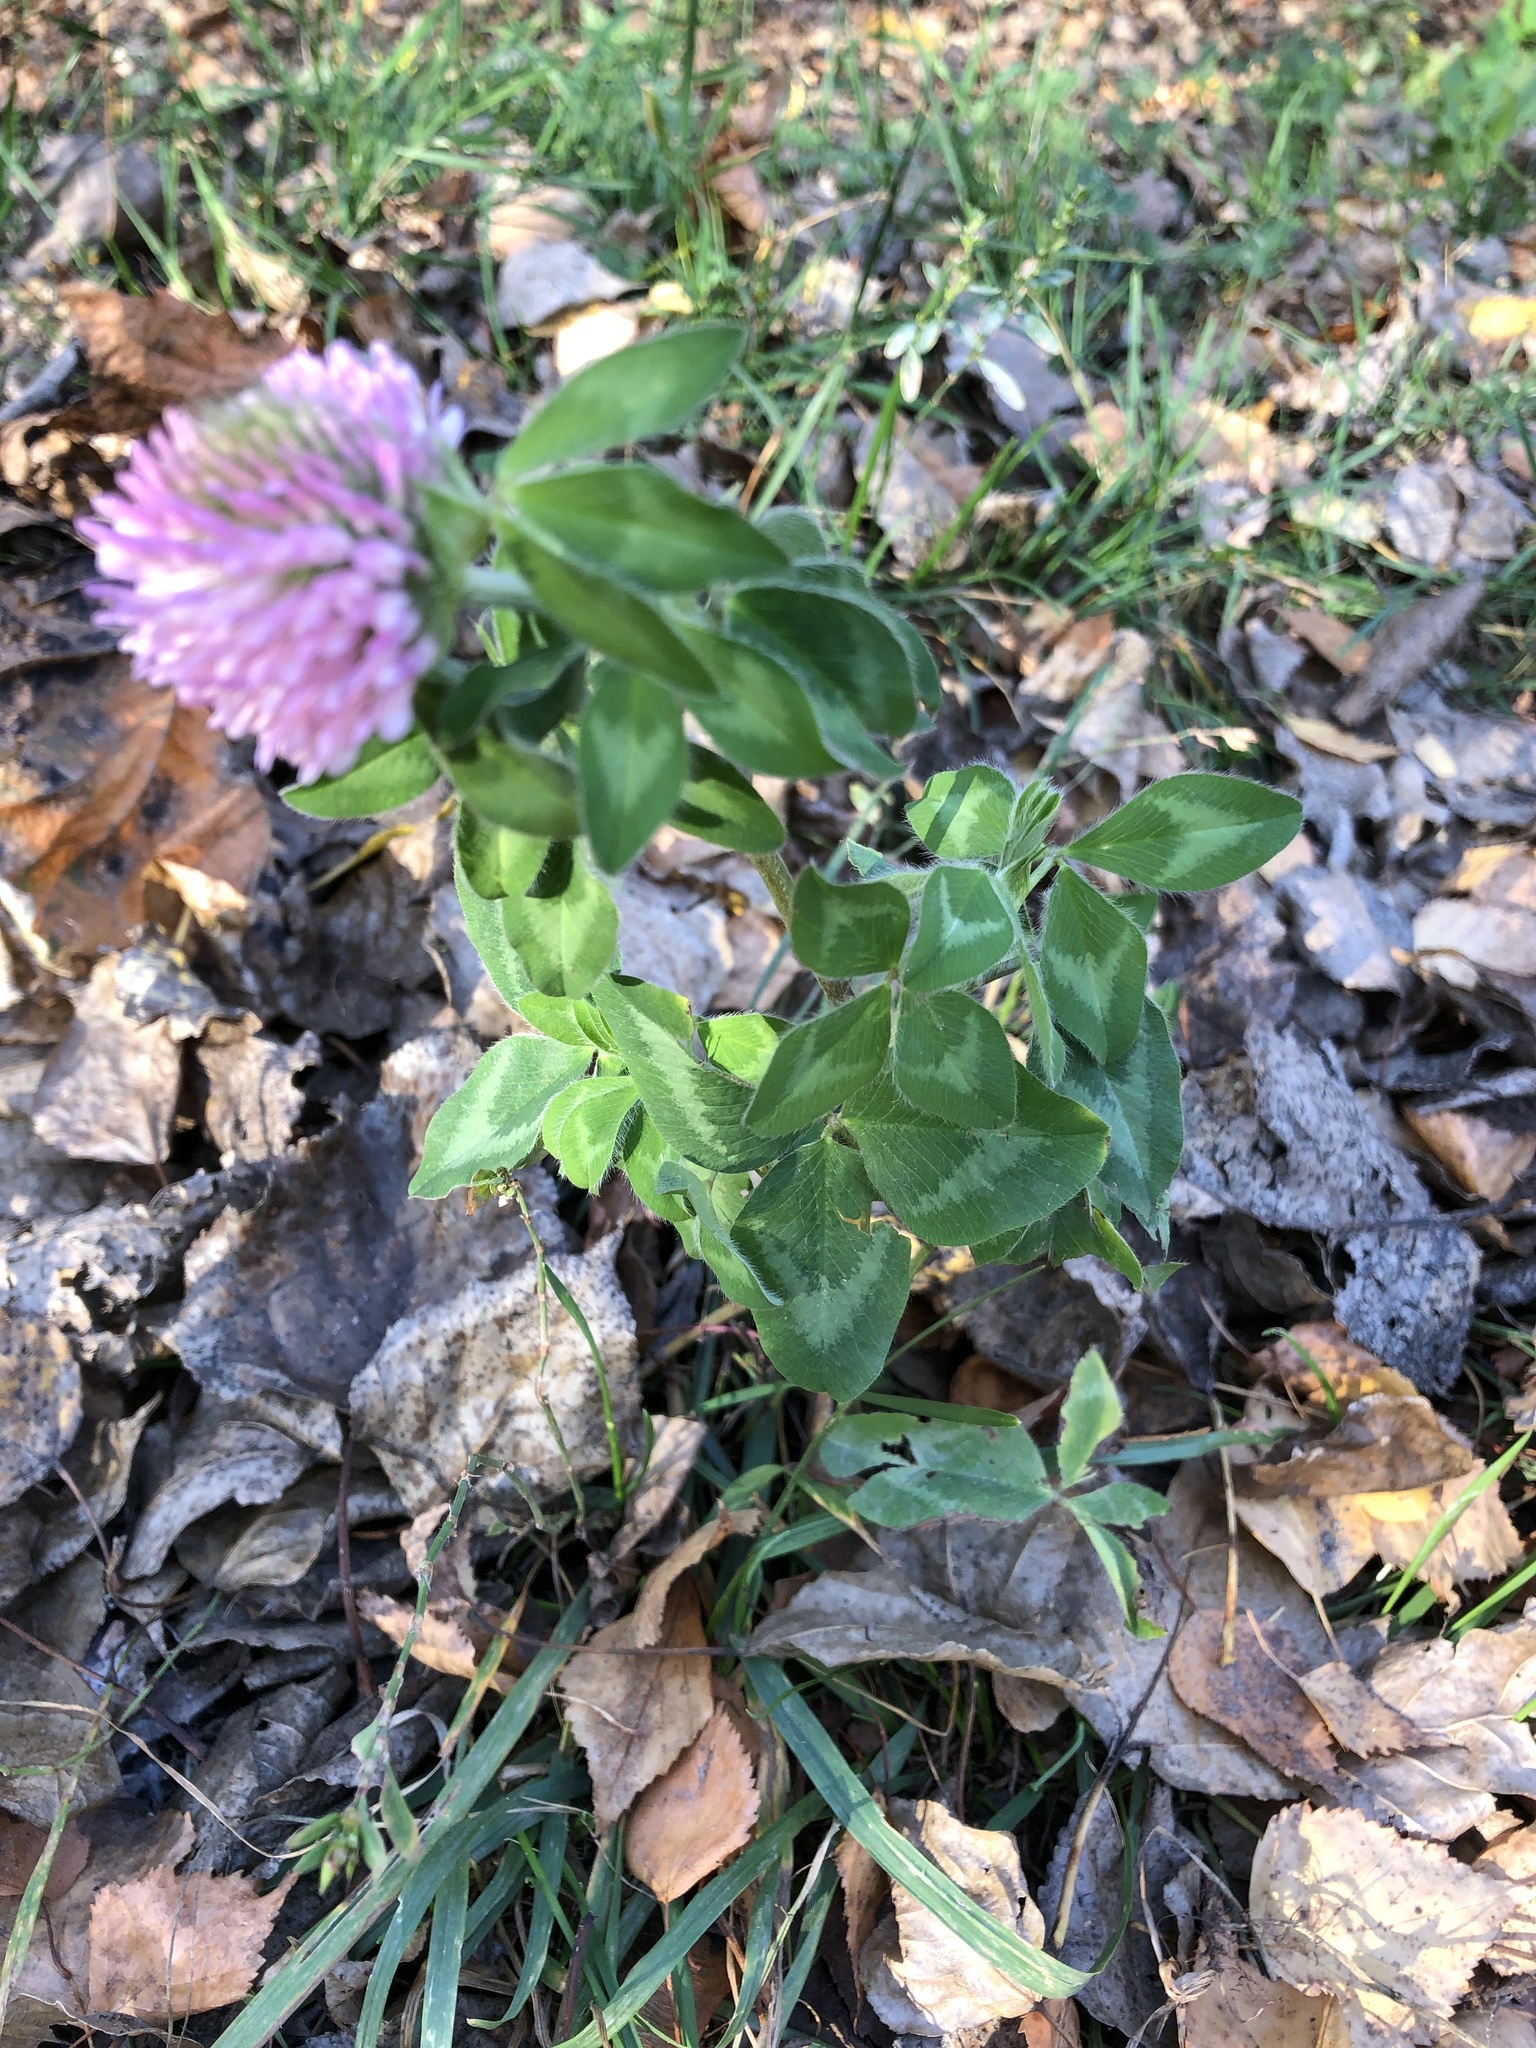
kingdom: Plantae
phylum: Tracheophyta
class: Magnoliopsida
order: Fabales
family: Fabaceae
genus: Trifolium
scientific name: Trifolium pratense
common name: Red clover
